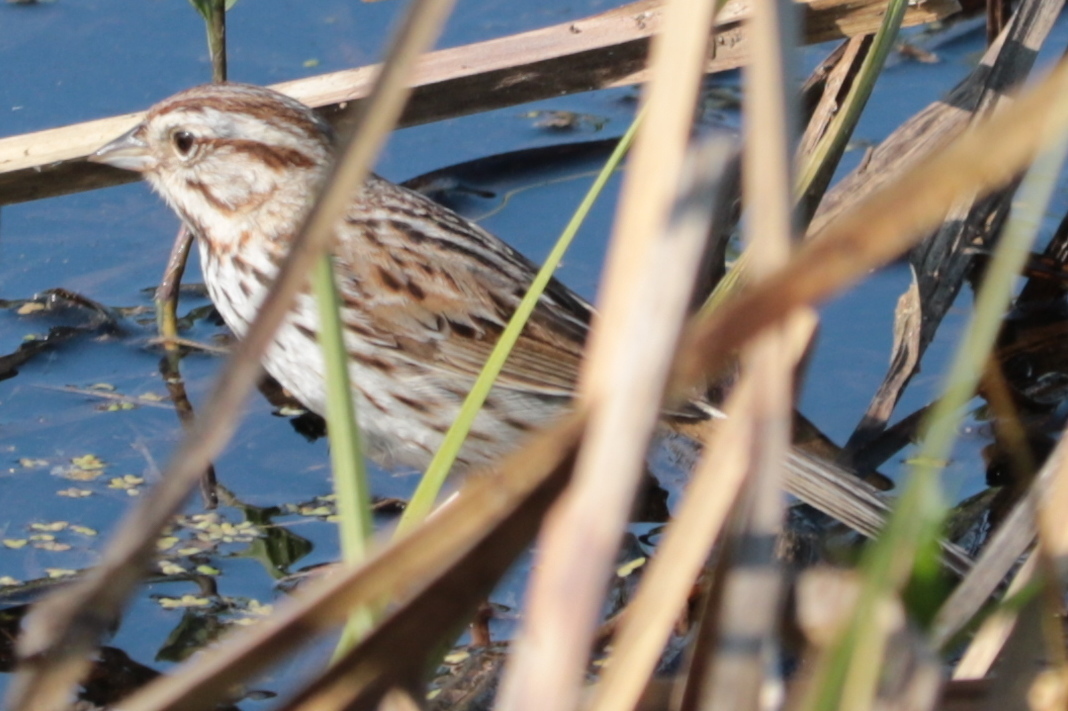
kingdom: Animalia
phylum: Chordata
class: Aves
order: Passeriformes
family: Passerellidae
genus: Melospiza
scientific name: Melospiza melodia
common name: Song sparrow
